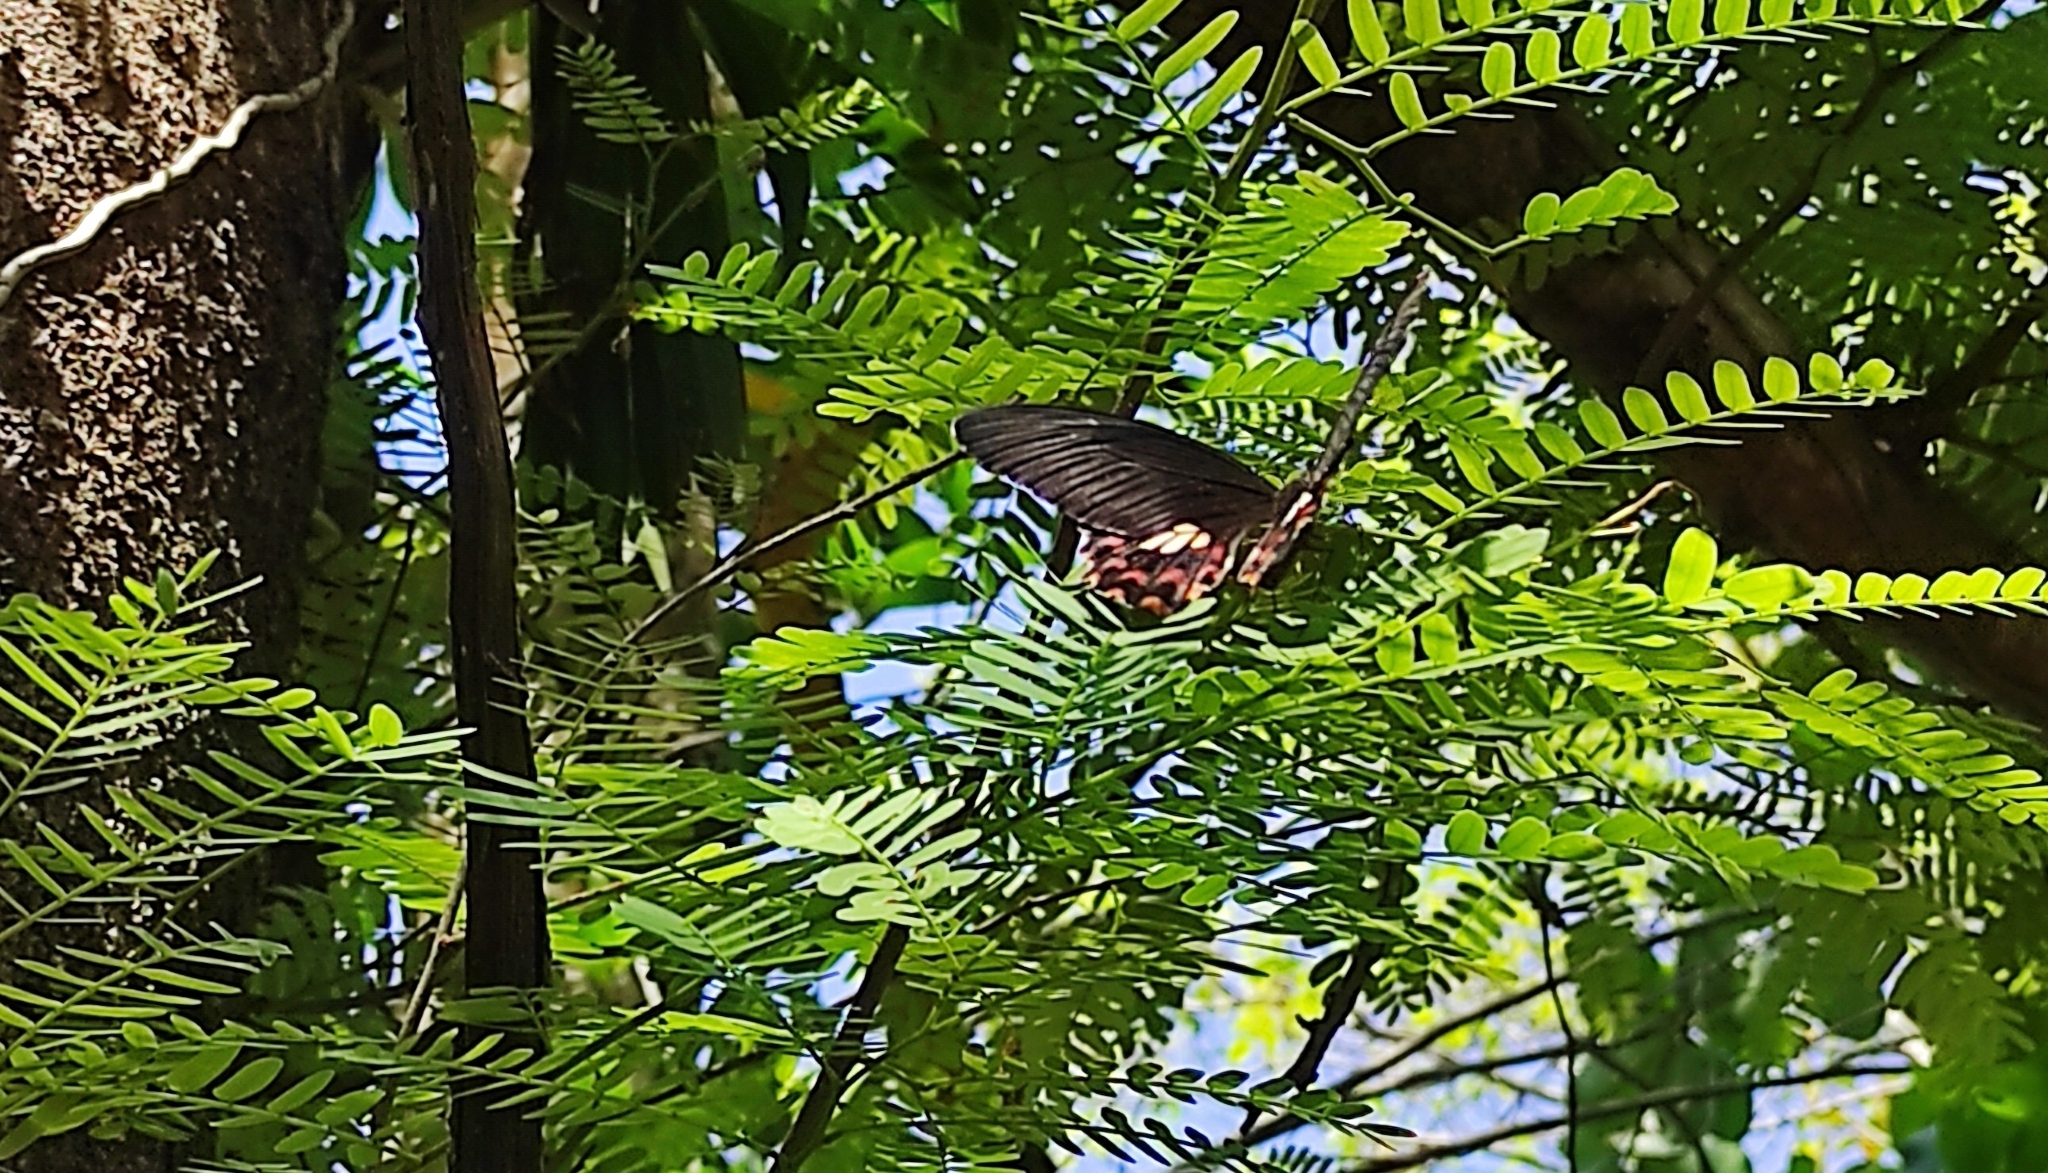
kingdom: Animalia
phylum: Arthropoda
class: Insecta
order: Lepidoptera
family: Papilionidae
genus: Papilio
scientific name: Papilio polytes
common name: Common mormon
